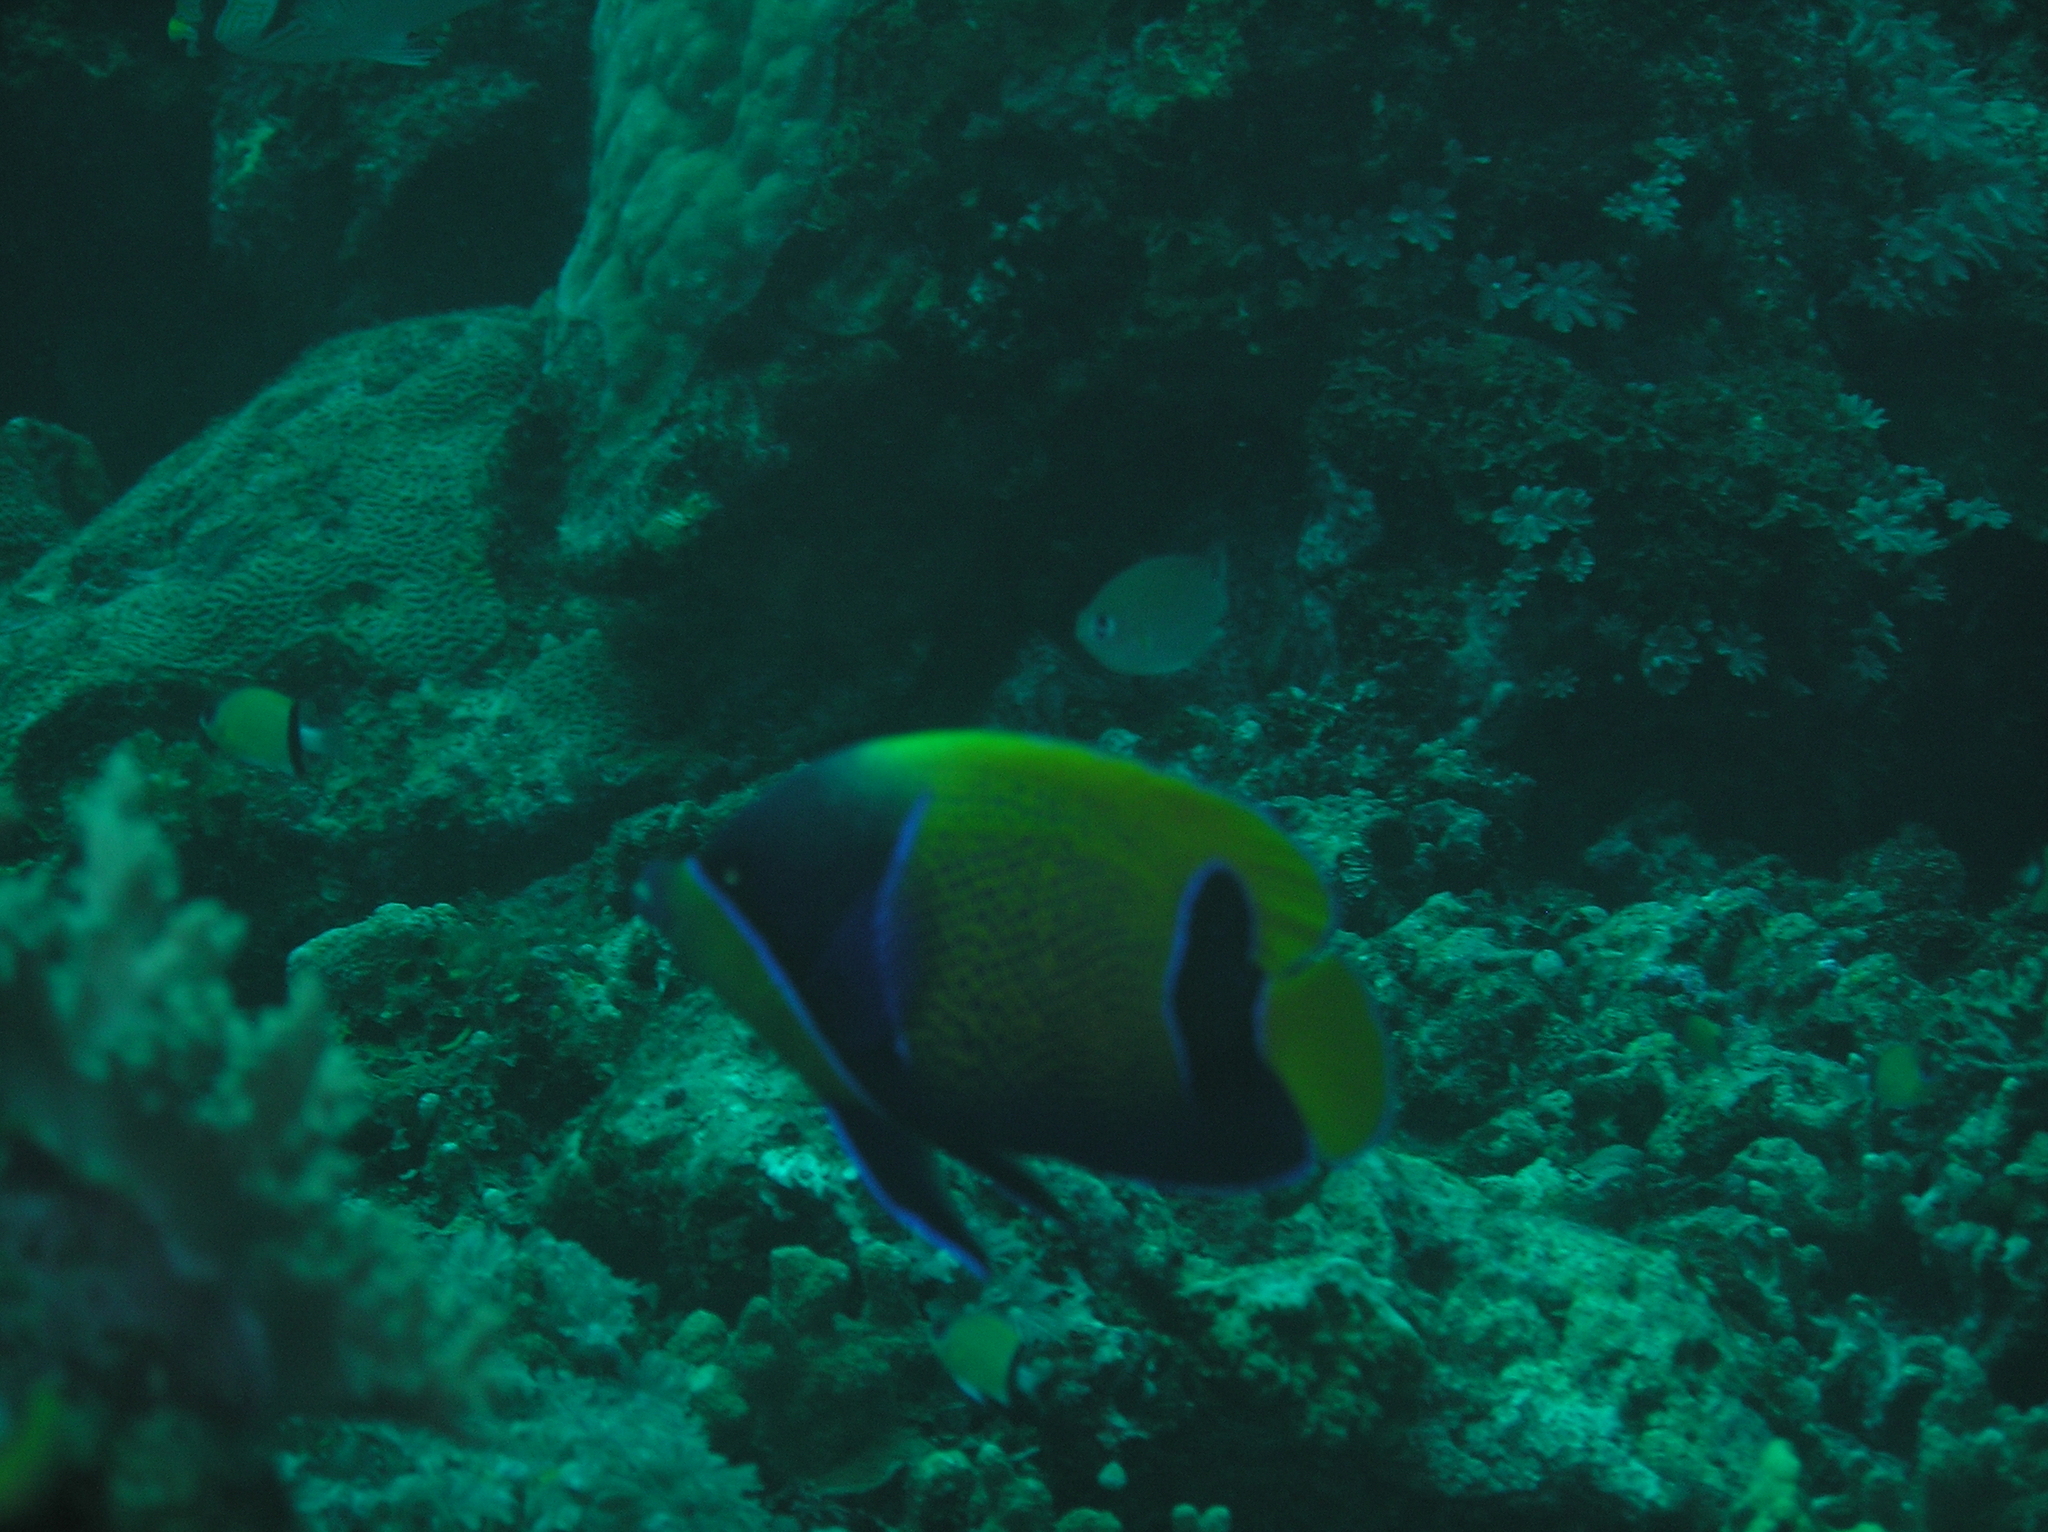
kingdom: Animalia
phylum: Chordata
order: Perciformes
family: Pomacanthidae
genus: Pomacanthus
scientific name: Pomacanthus navarchus
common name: Blue-girdled angelfish
